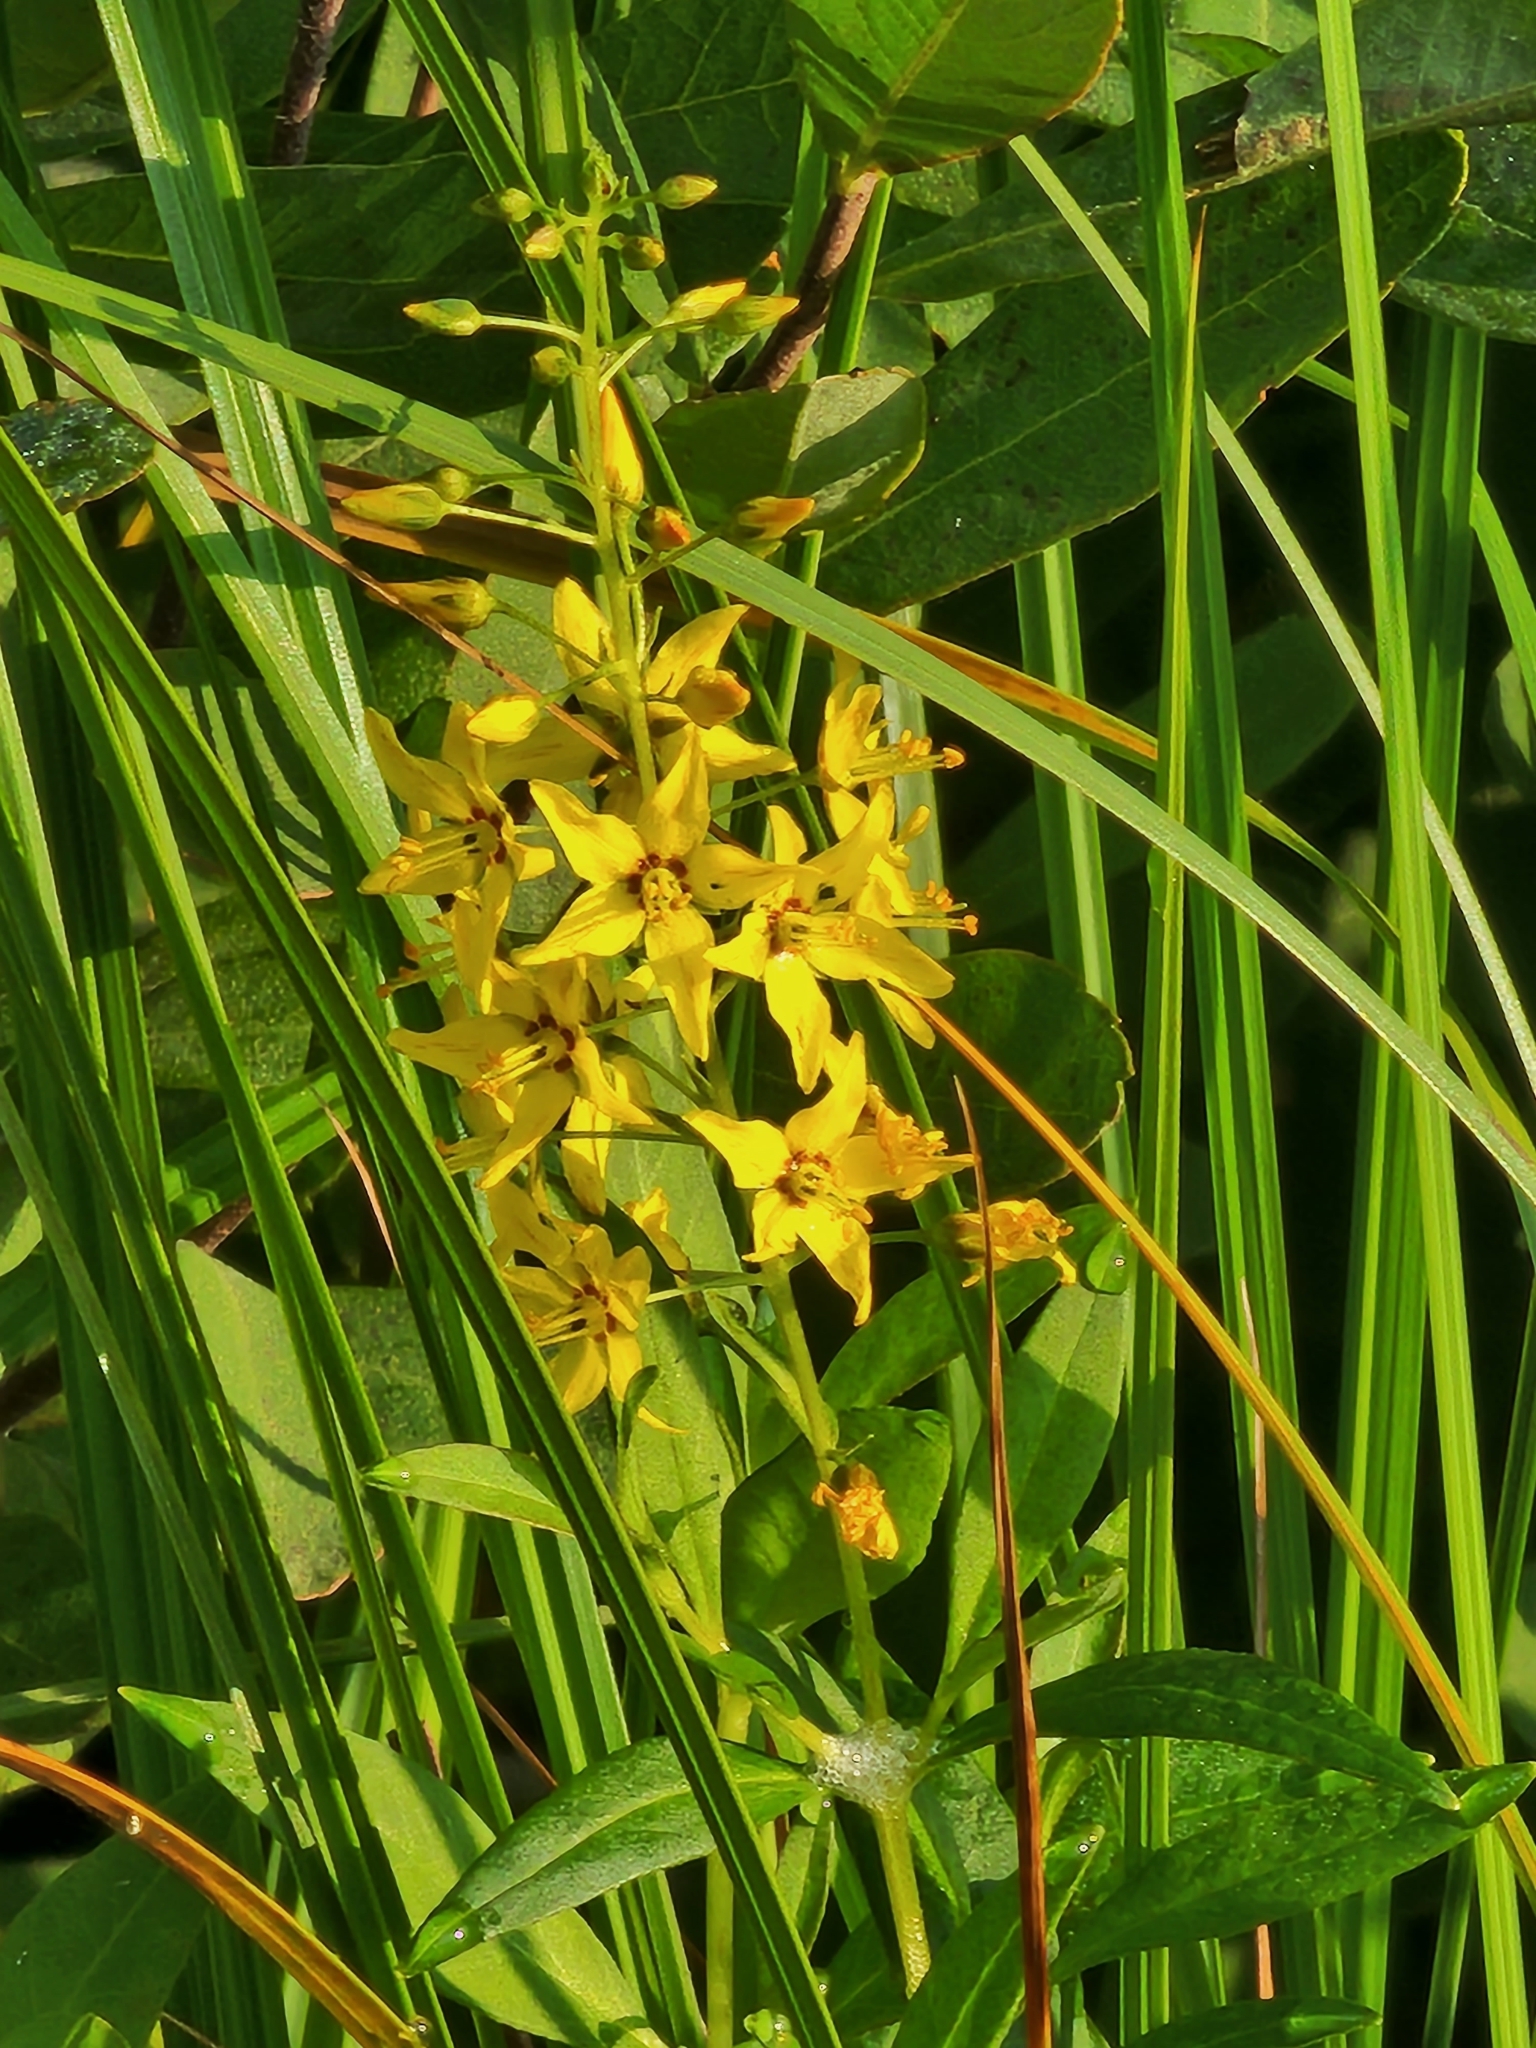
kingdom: Plantae
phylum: Tracheophyta
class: Magnoliopsida
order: Ericales
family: Primulaceae
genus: Lysimachia
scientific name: Lysimachia terrestris
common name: Lake loosestrife
